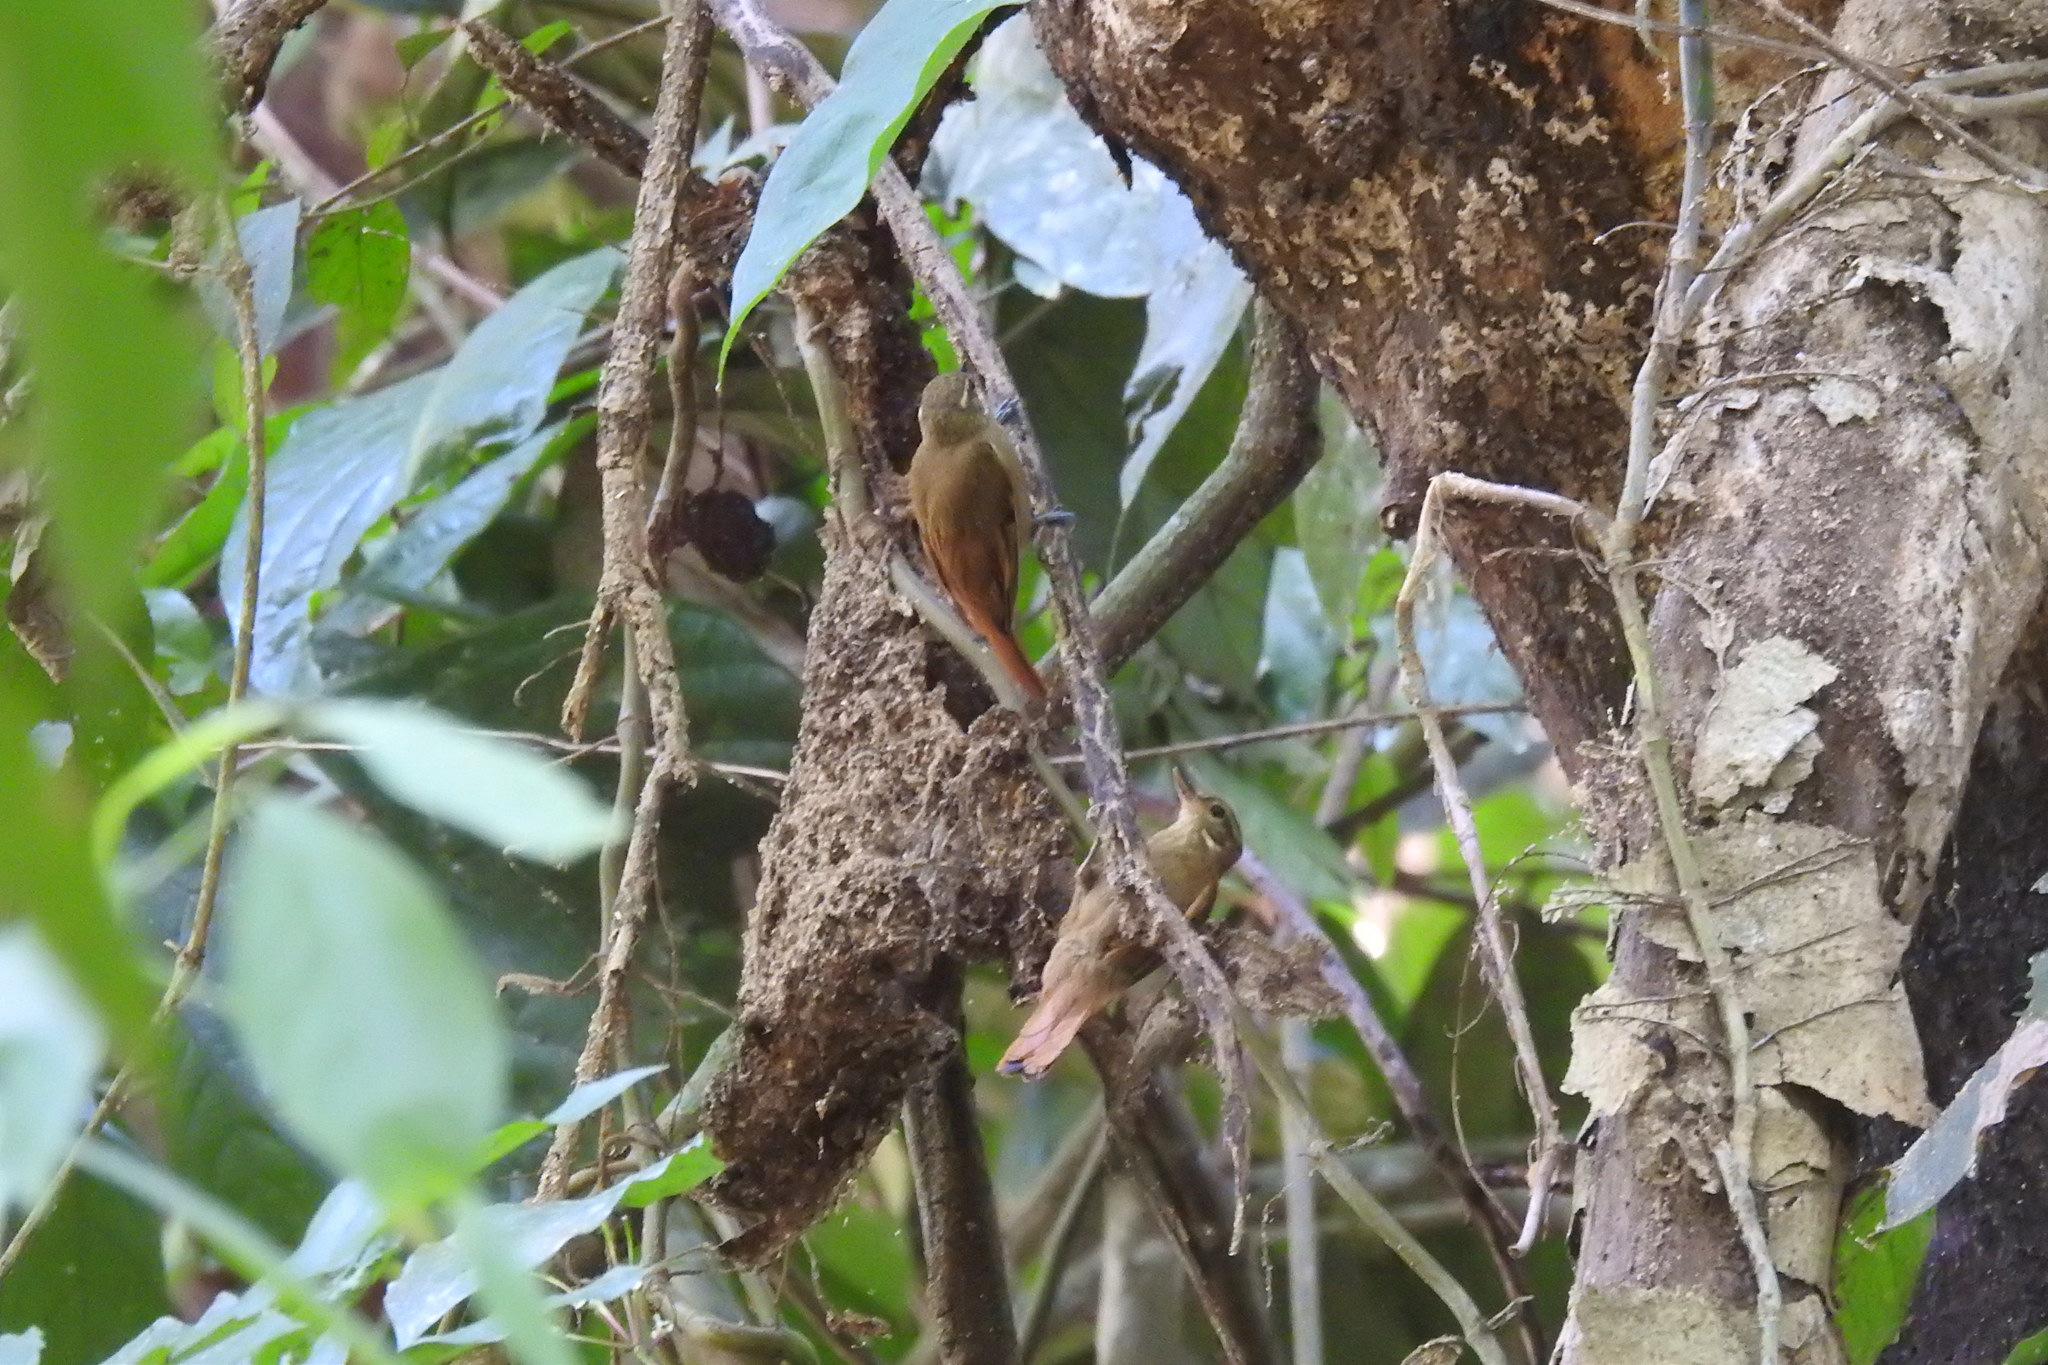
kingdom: Animalia
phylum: Chordata
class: Aves
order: Passeriformes
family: Furnariidae
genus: Glyphorynchus
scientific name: Glyphorynchus spirurus
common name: Wedge-billed woodcreeper
